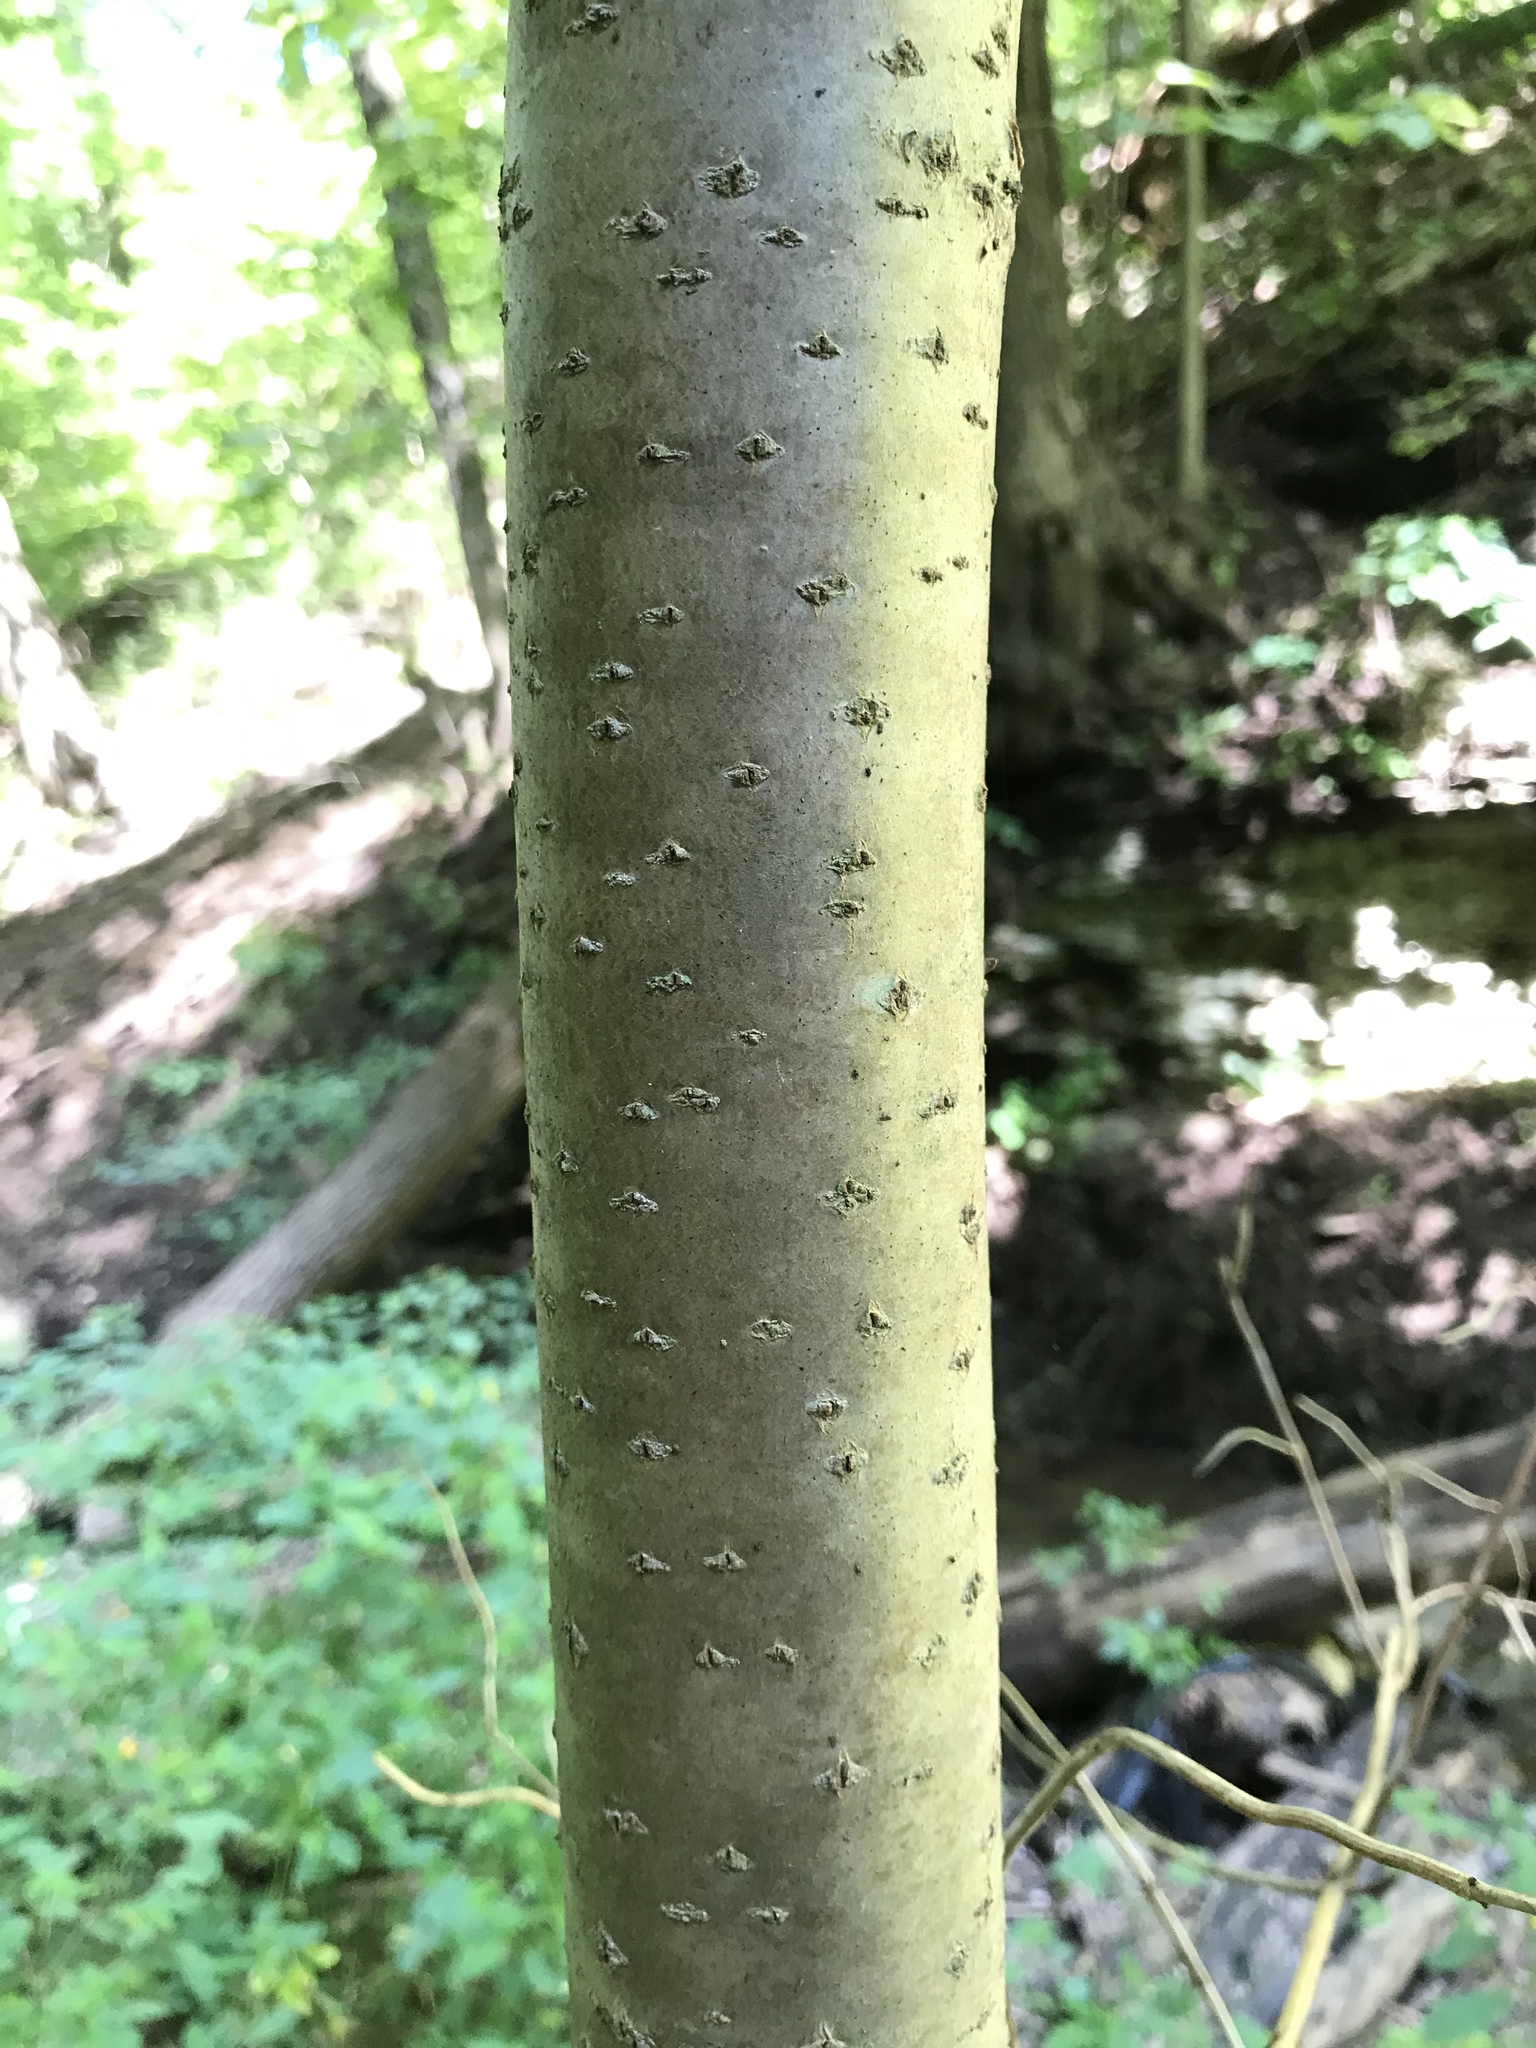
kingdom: Plantae
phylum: Tracheophyta
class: Magnoliopsida
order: Sapindales
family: Rutaceae
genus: Phellodendron
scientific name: Phellodendron amurense
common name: Amur corktree
